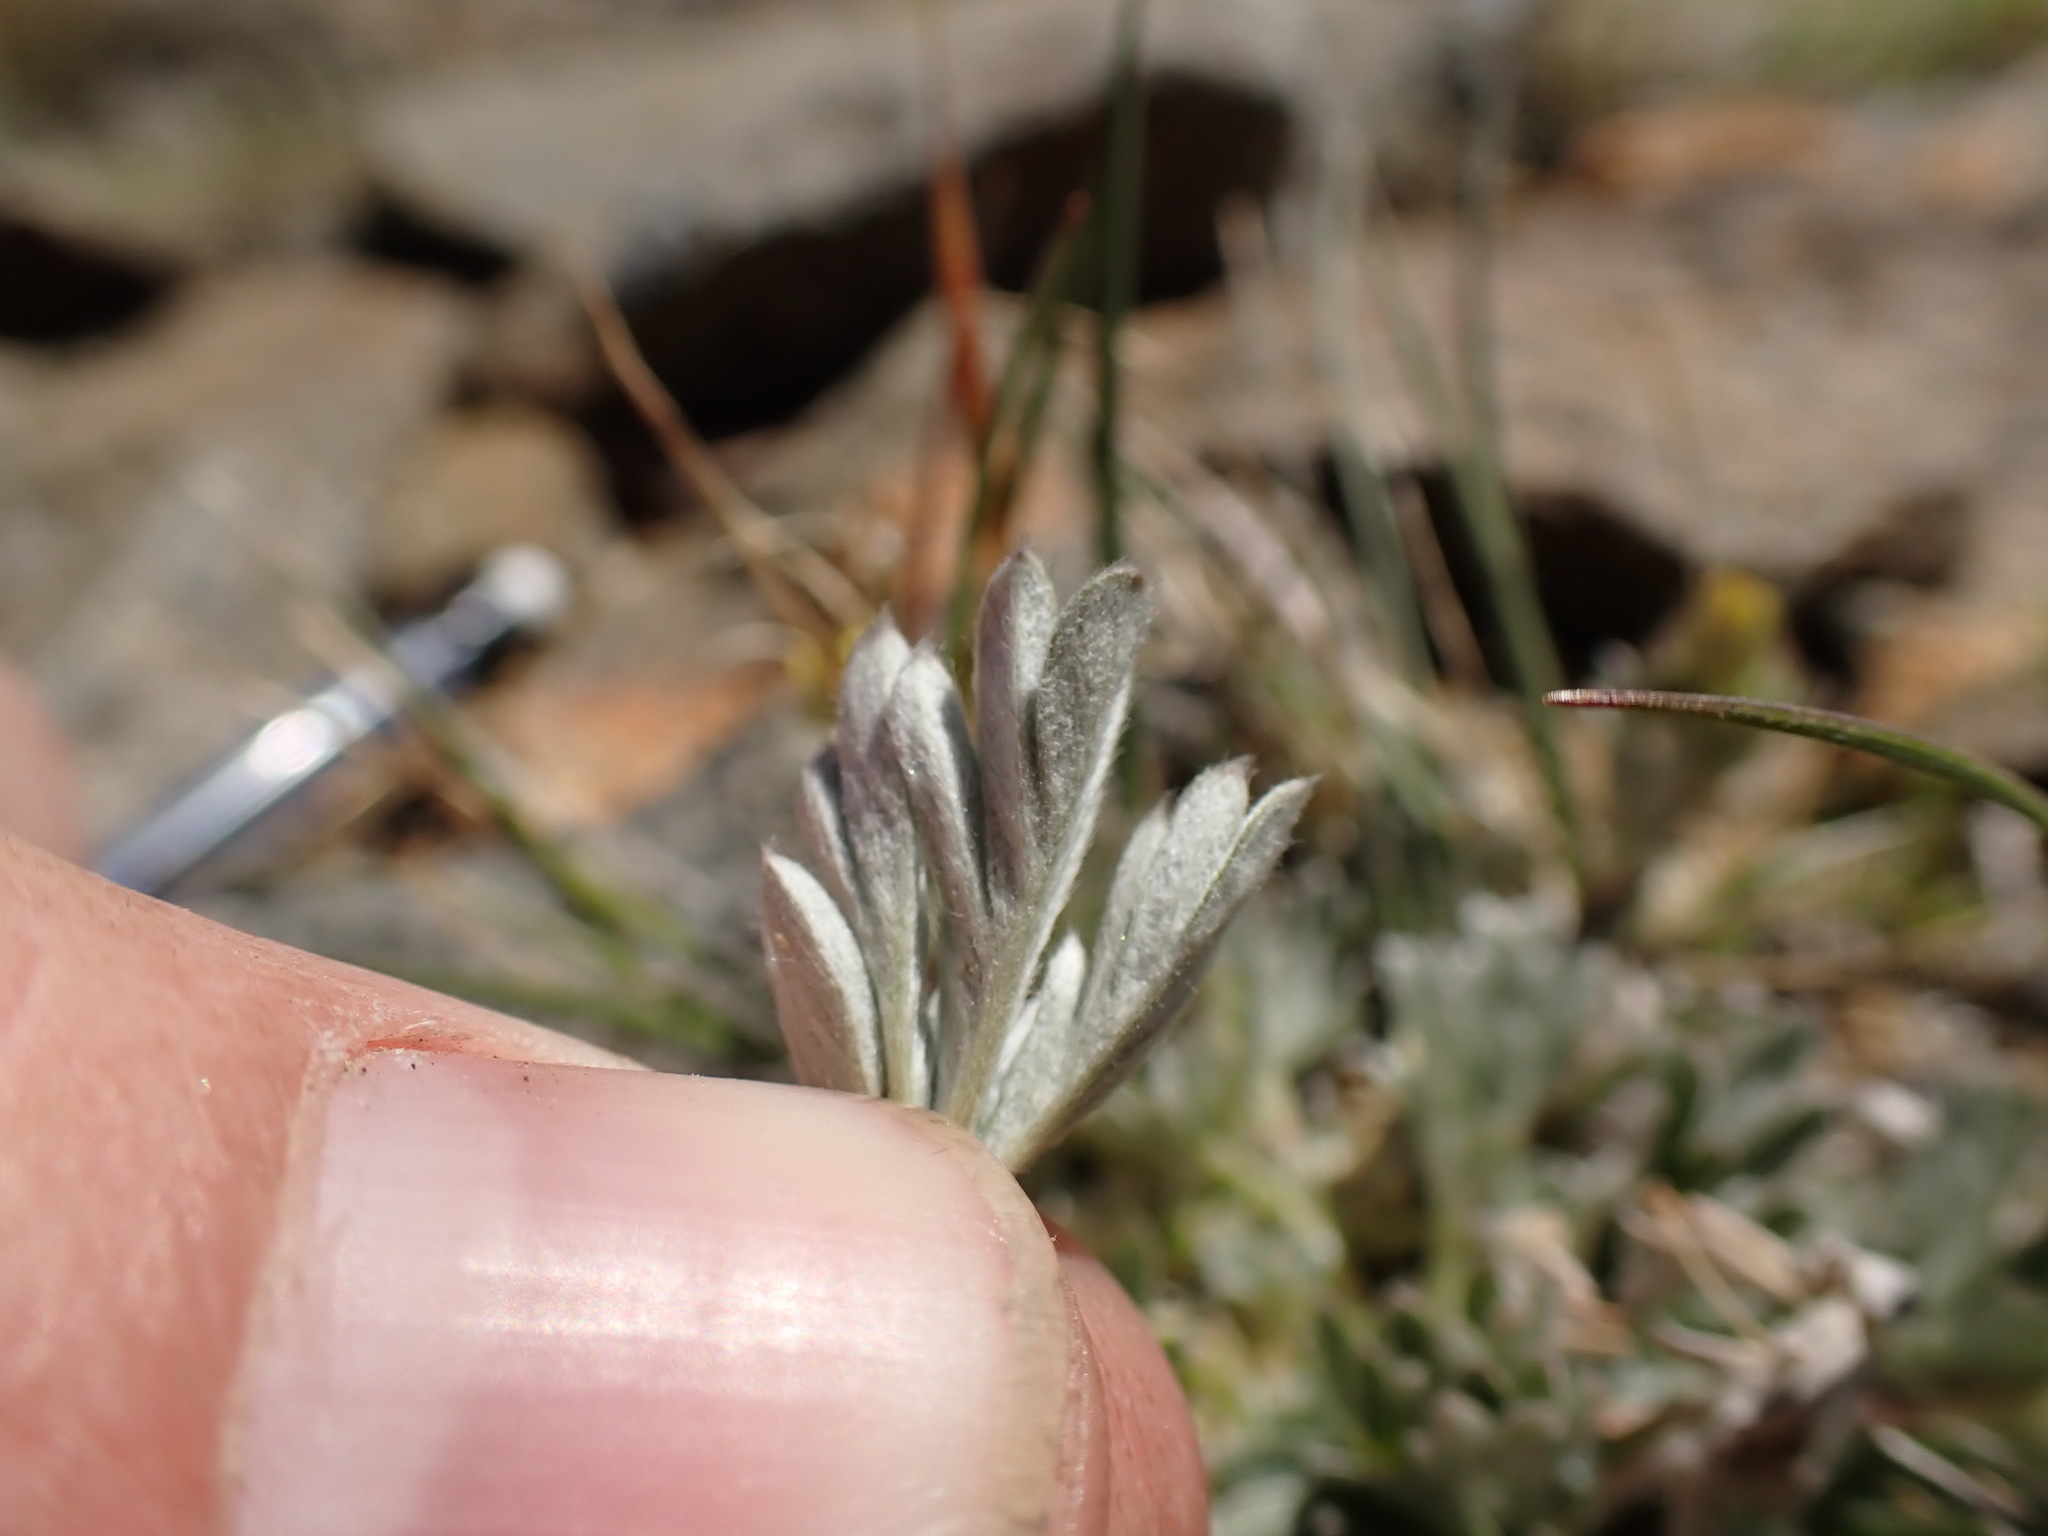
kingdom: Plantae
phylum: Tracheophyta
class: Magnoliopsida
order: Rosales
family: Rosaceae
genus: Potentilla
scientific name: Potentilla pseudosericea
